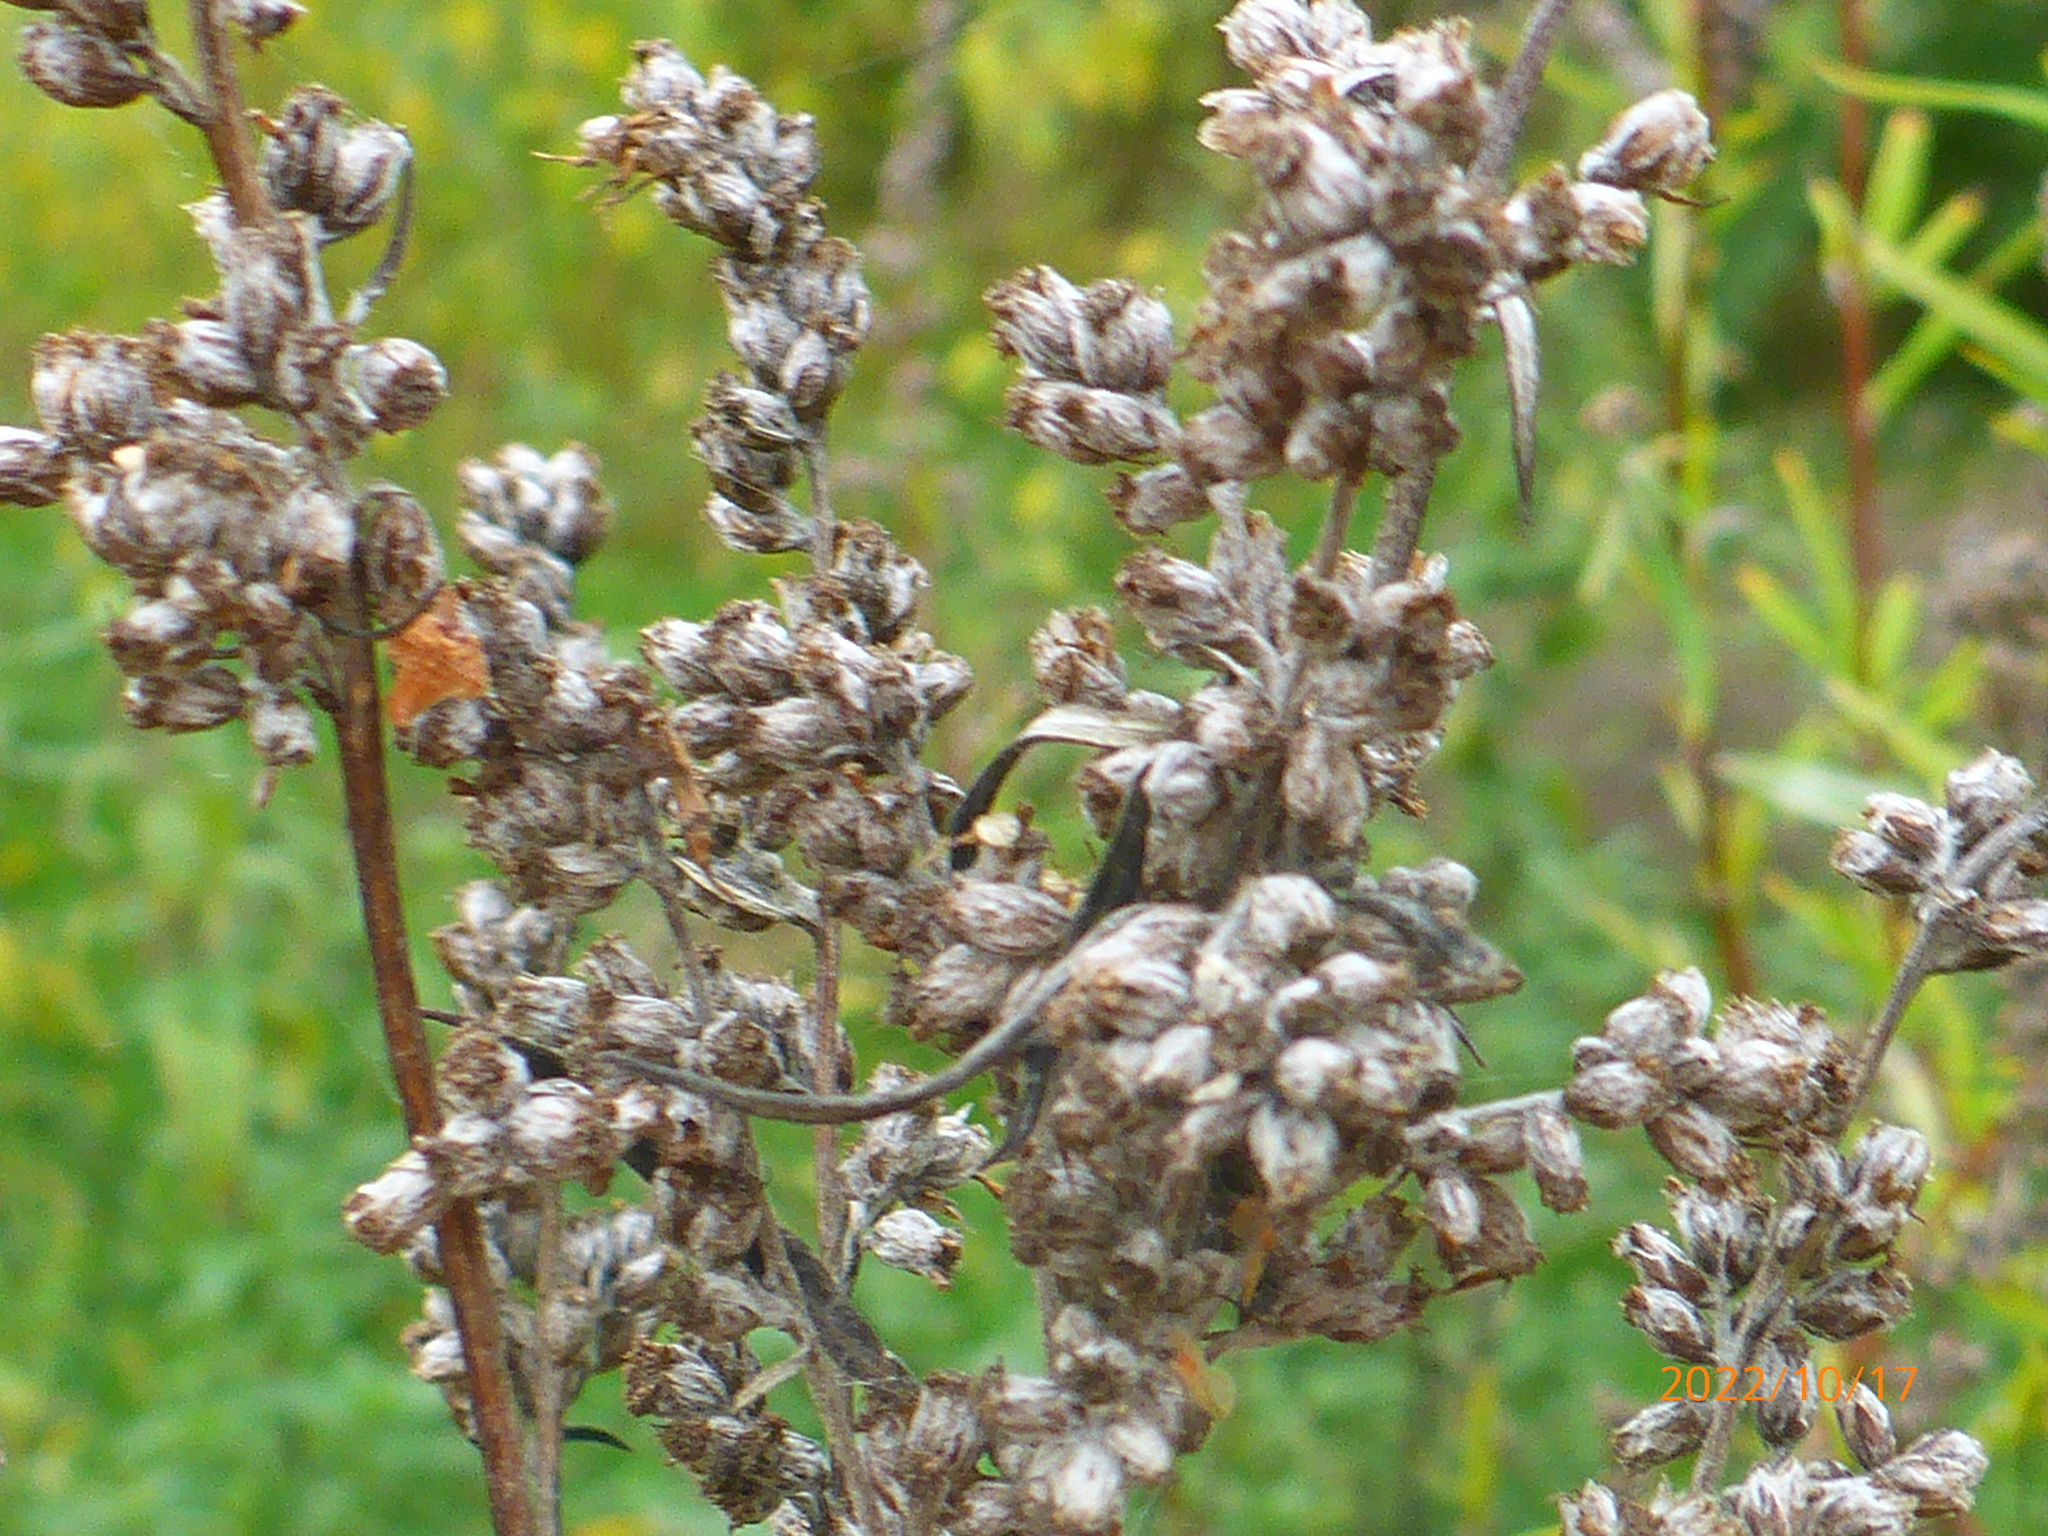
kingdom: Plantae
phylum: Tracheophyta
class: Magnoliopsida
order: Asterales
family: Asteraceae
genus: Artemisia
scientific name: Artemisia vulgaris
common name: Mugwort
